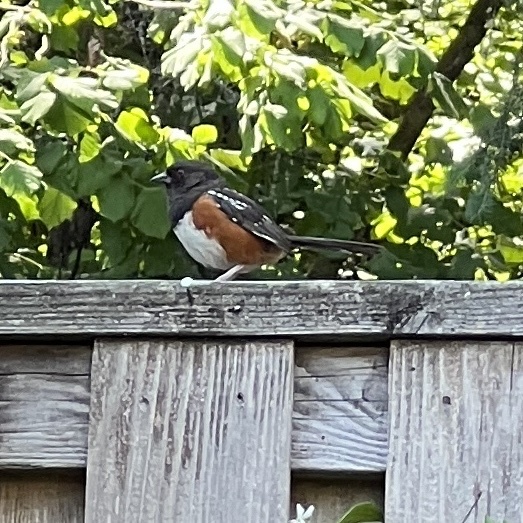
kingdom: Animalia
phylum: Chordata
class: Aves
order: Passeriformes
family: Passerellidae
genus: Pipilo
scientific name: Pipilo maculatus
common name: Spotted towhee
